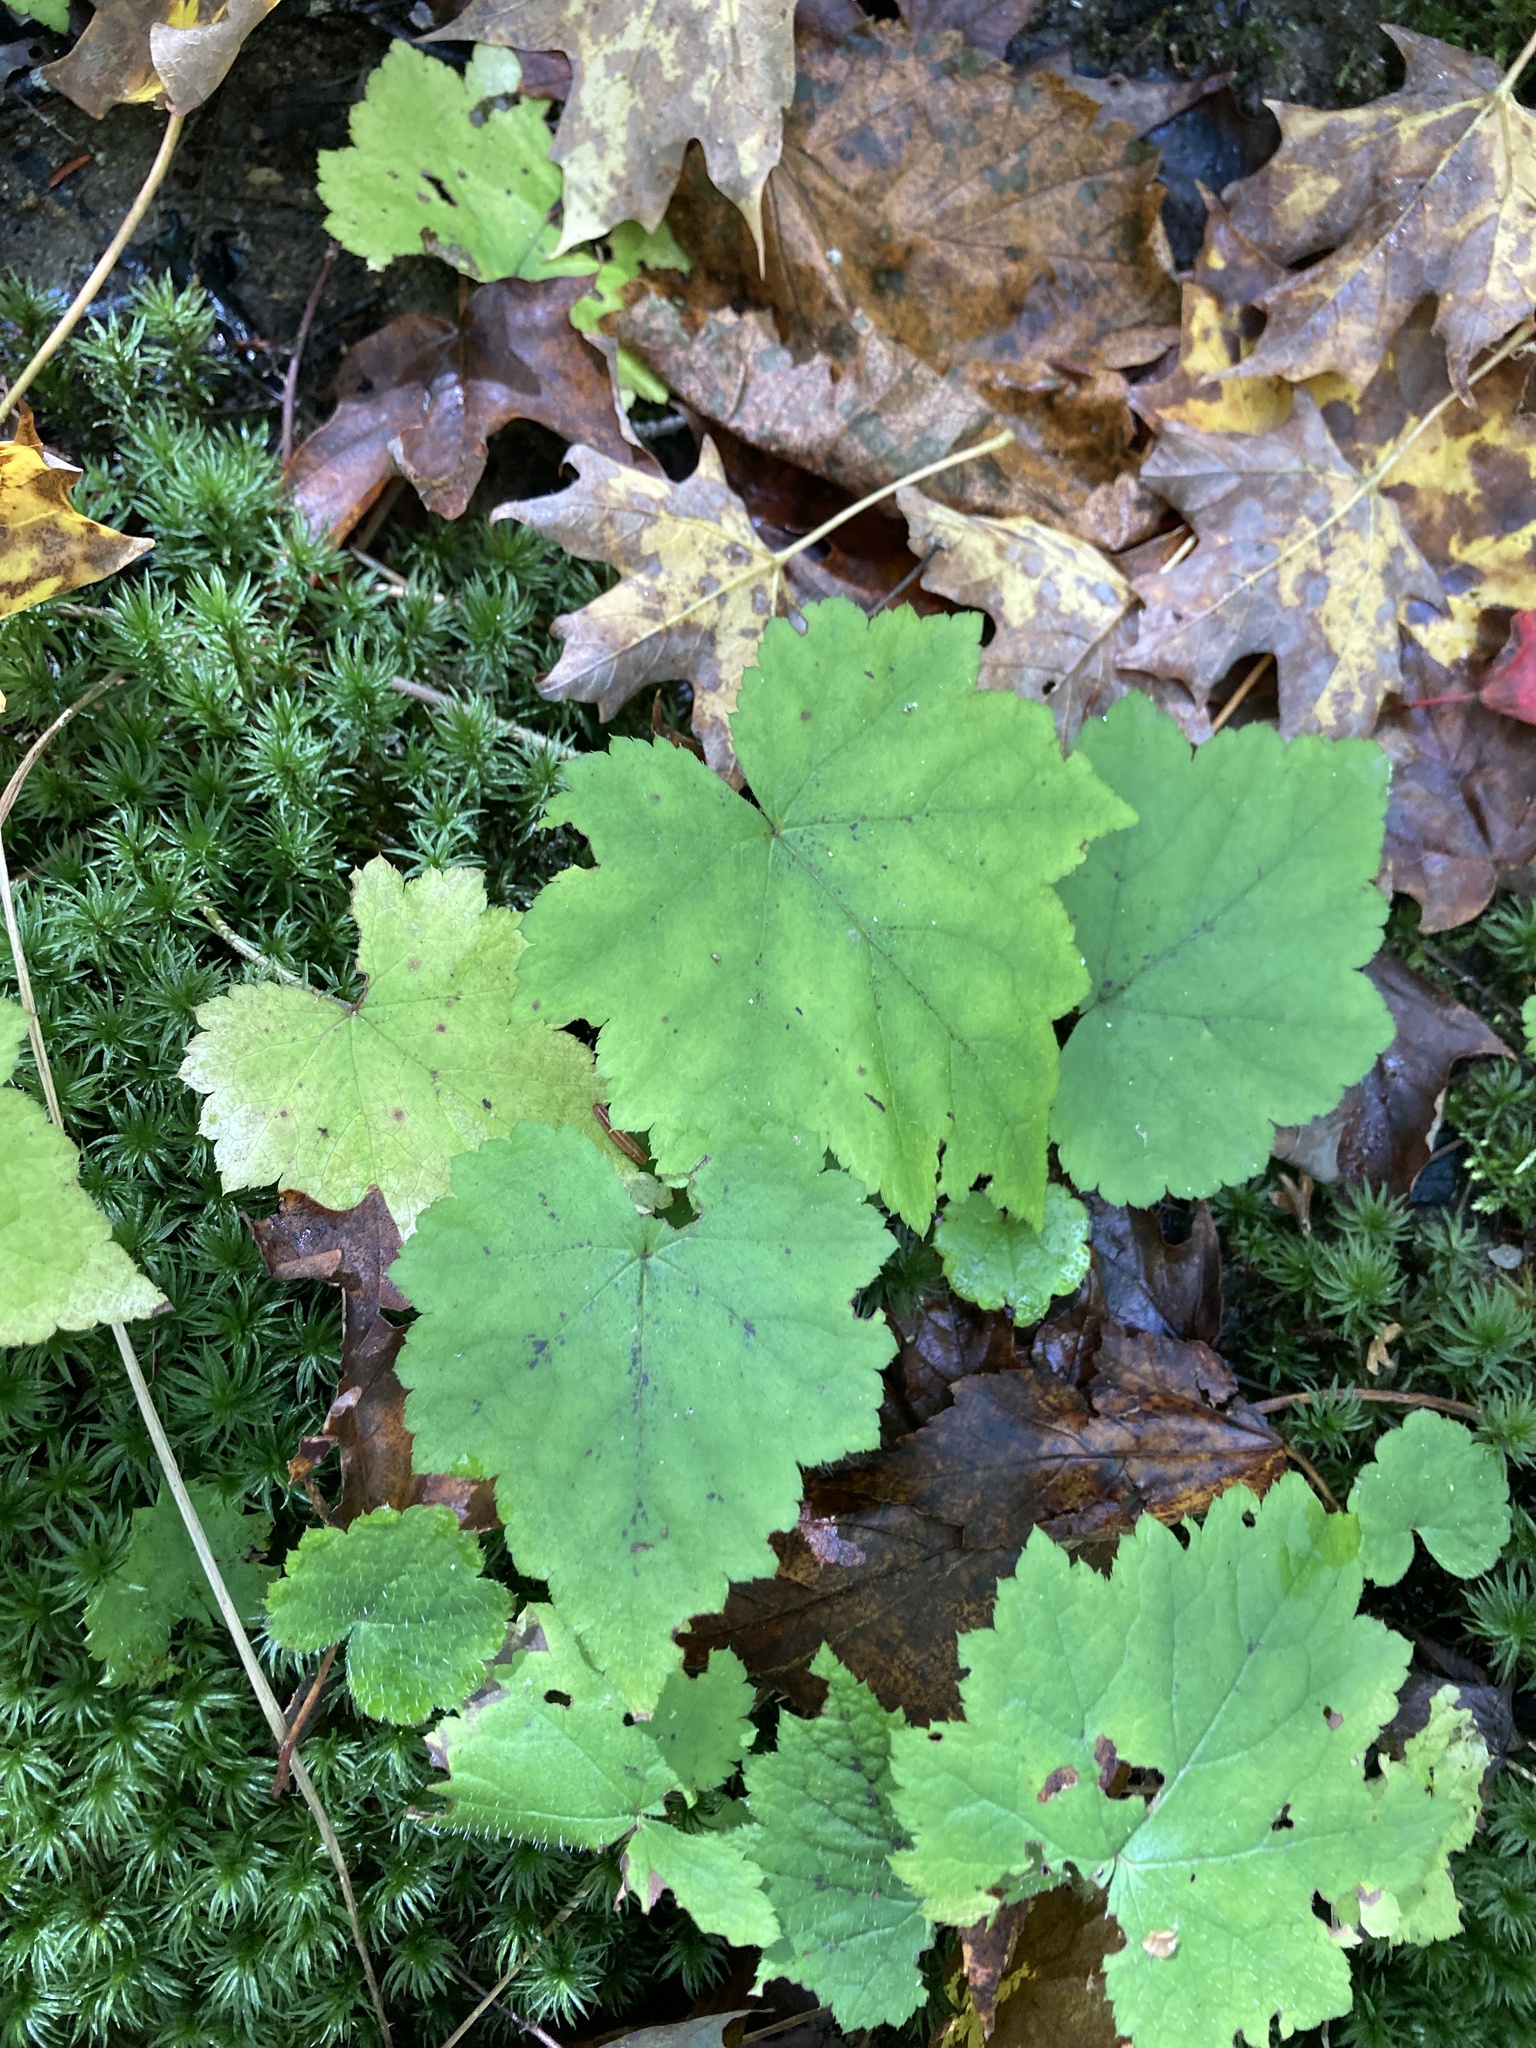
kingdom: Plantae
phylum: Tracheophyta
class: Magnoliopsida
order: Saxifragales
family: Saxifragaceae
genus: Tiarella
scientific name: Tiarella stolonifera
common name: Stoloniferous foamflower
